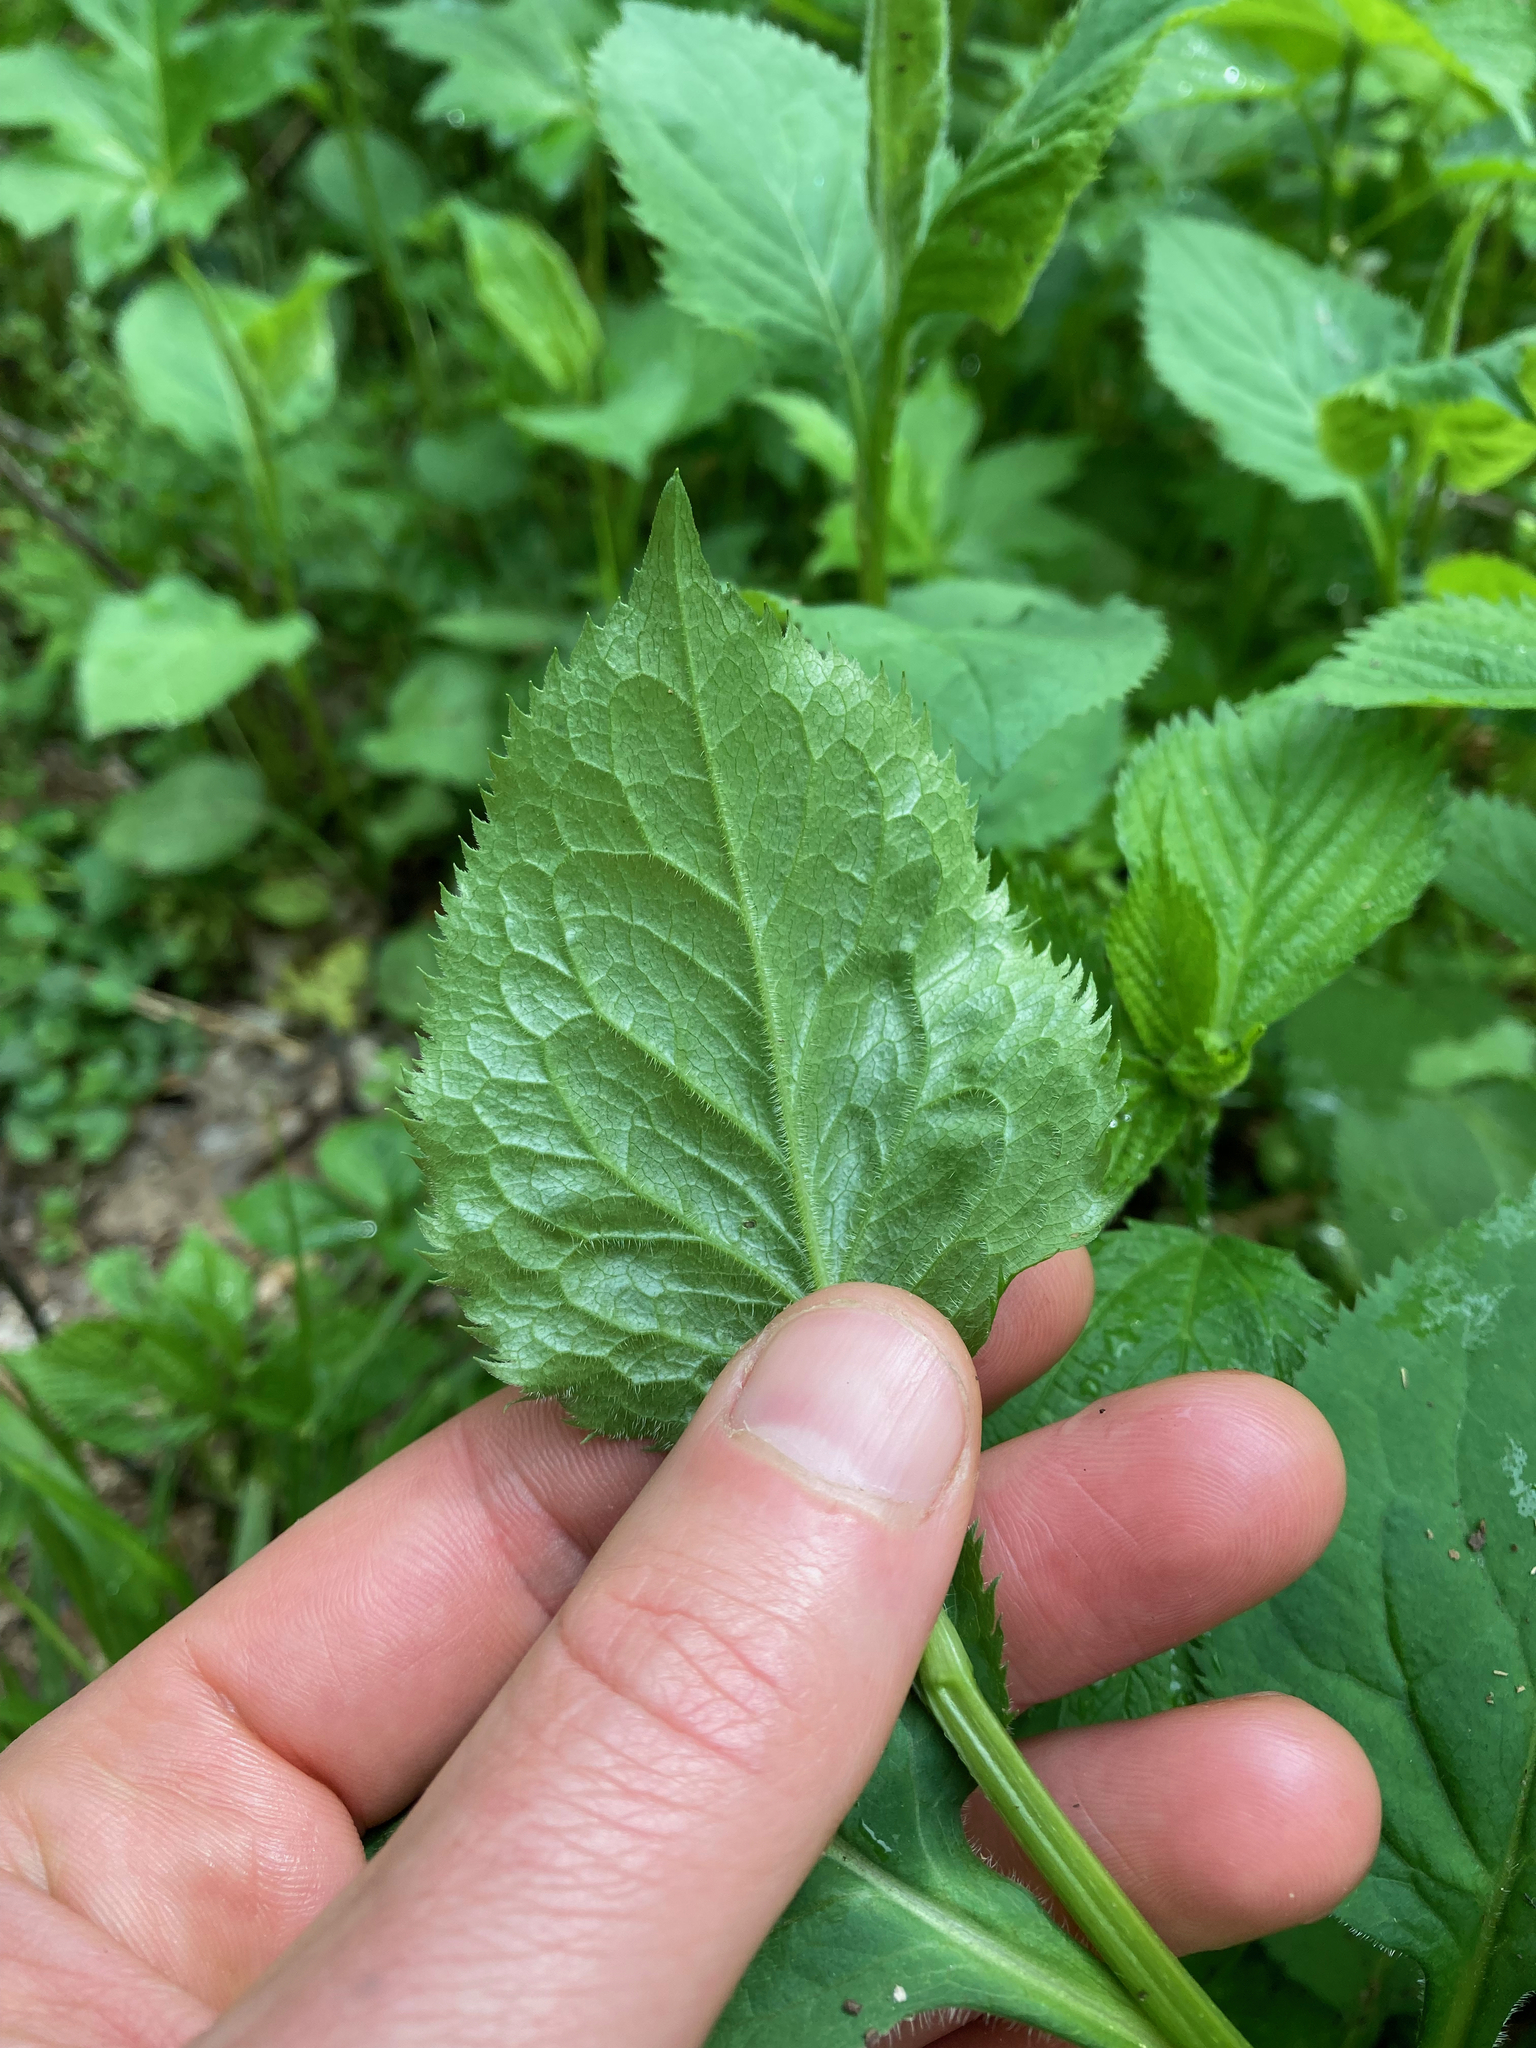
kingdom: Plantae
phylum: Tracheophyta
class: Magnoliopsida
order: Asterales
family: Asteraceae
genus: Solidago
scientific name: Solidago flexicaulis
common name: Zig-zag goldenrod
